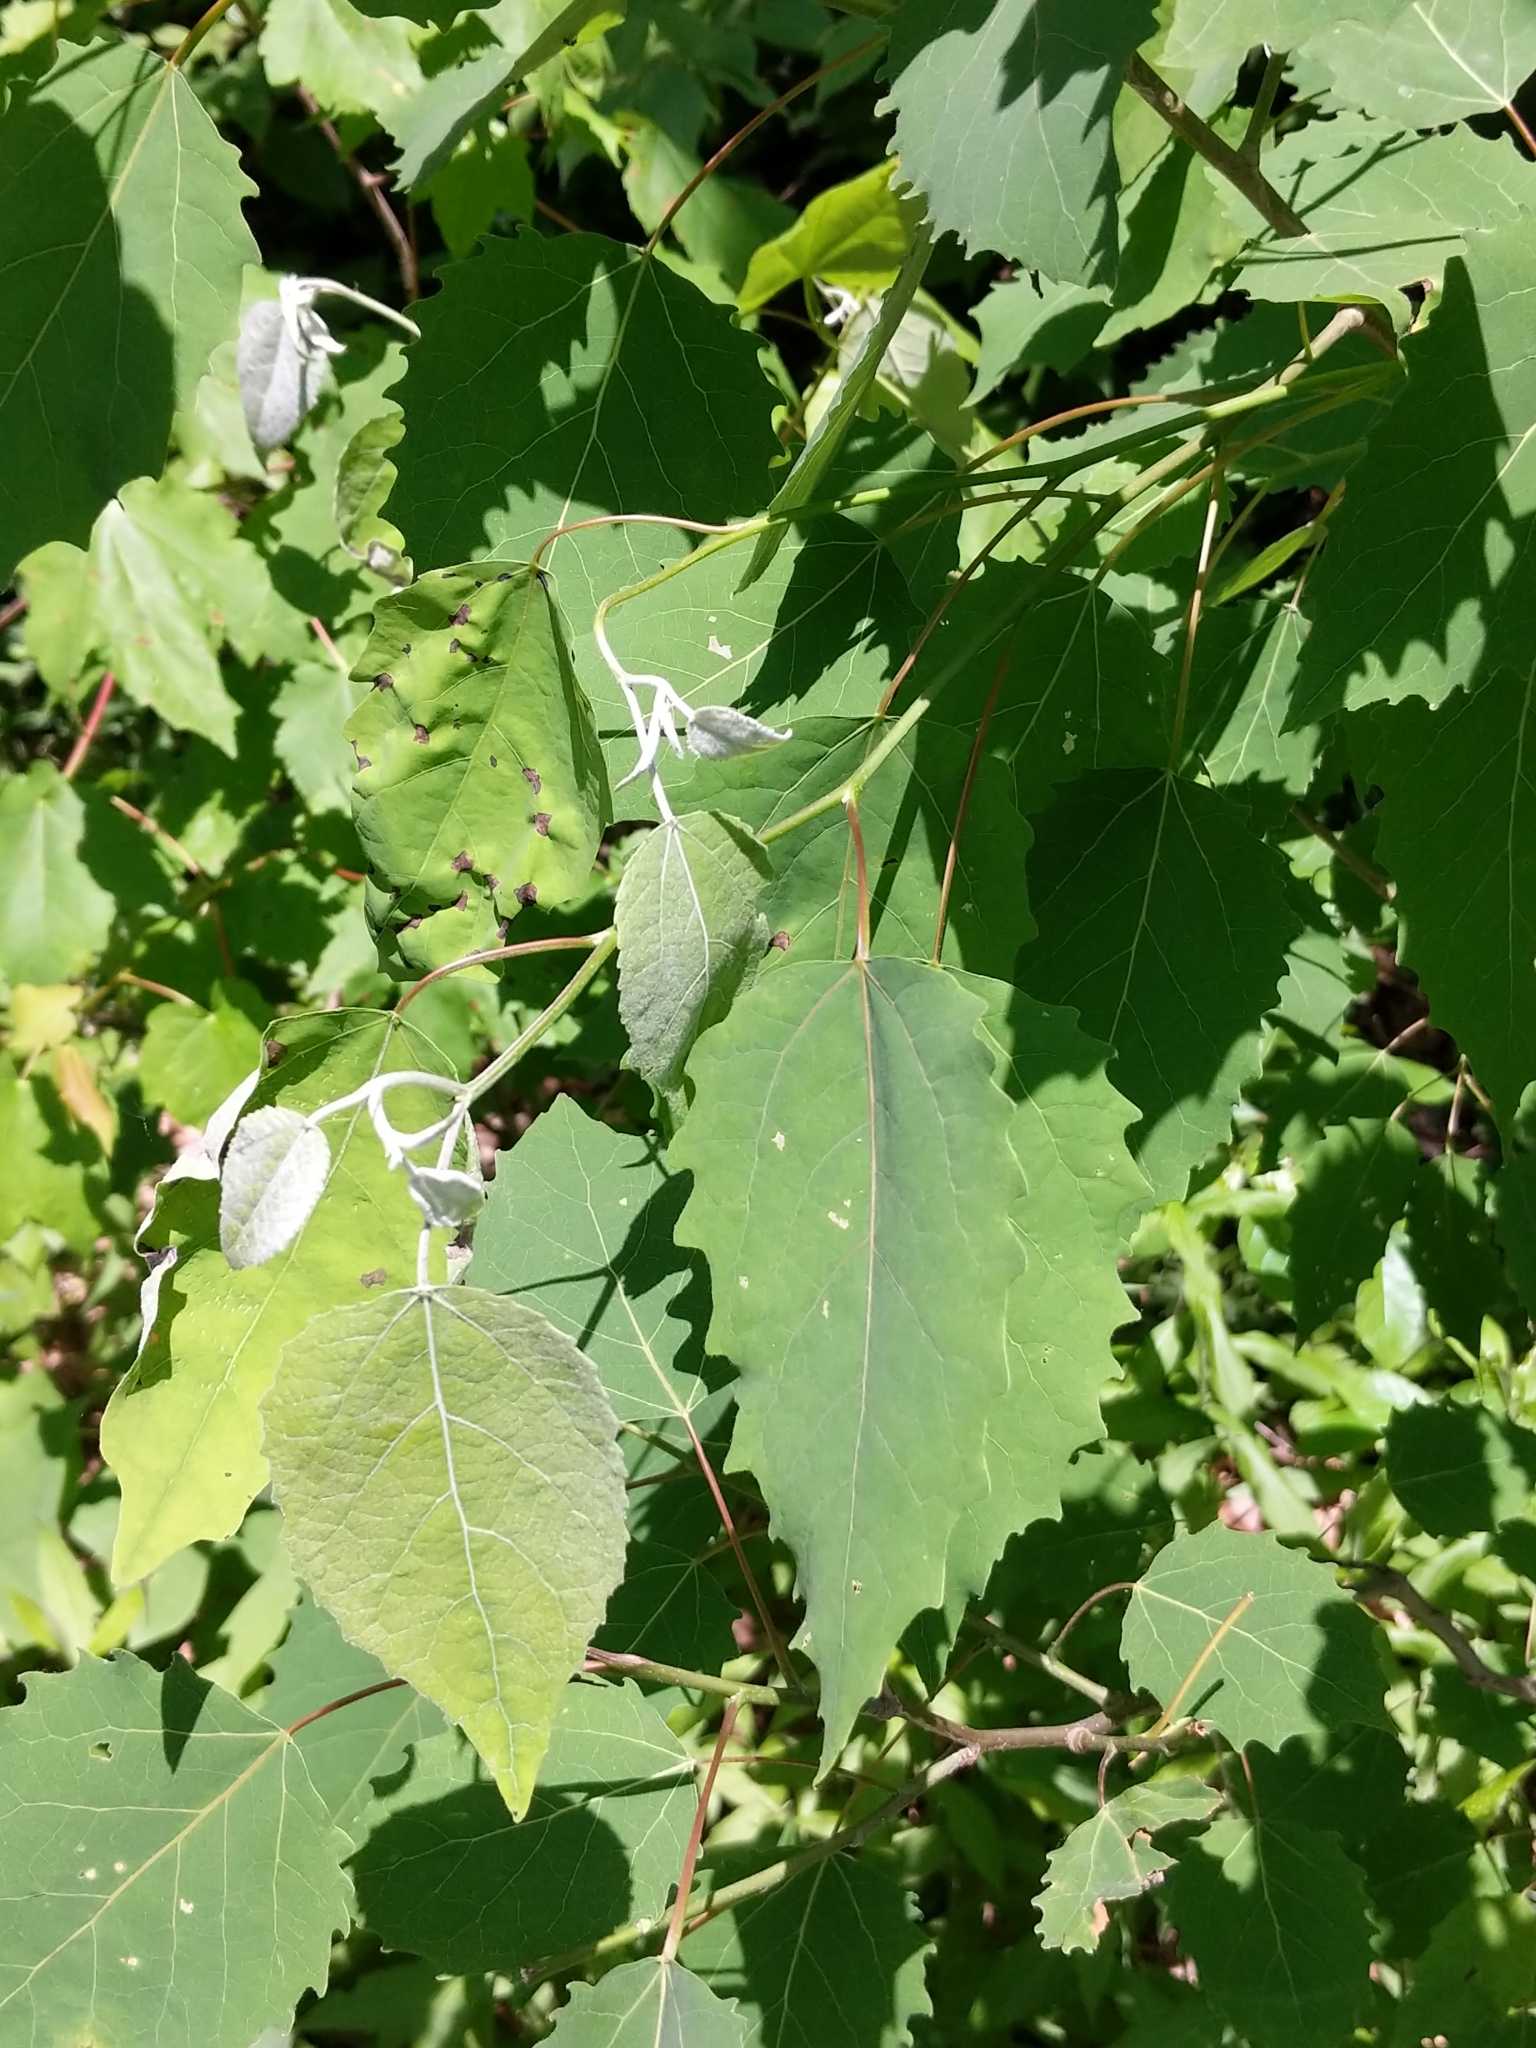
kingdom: Plantae
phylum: Tracheophyta
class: Magnoliopsida
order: Malpighiales
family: Salicaceae
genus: Populus
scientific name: Populus grandidentata
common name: Bigtooth aspen
